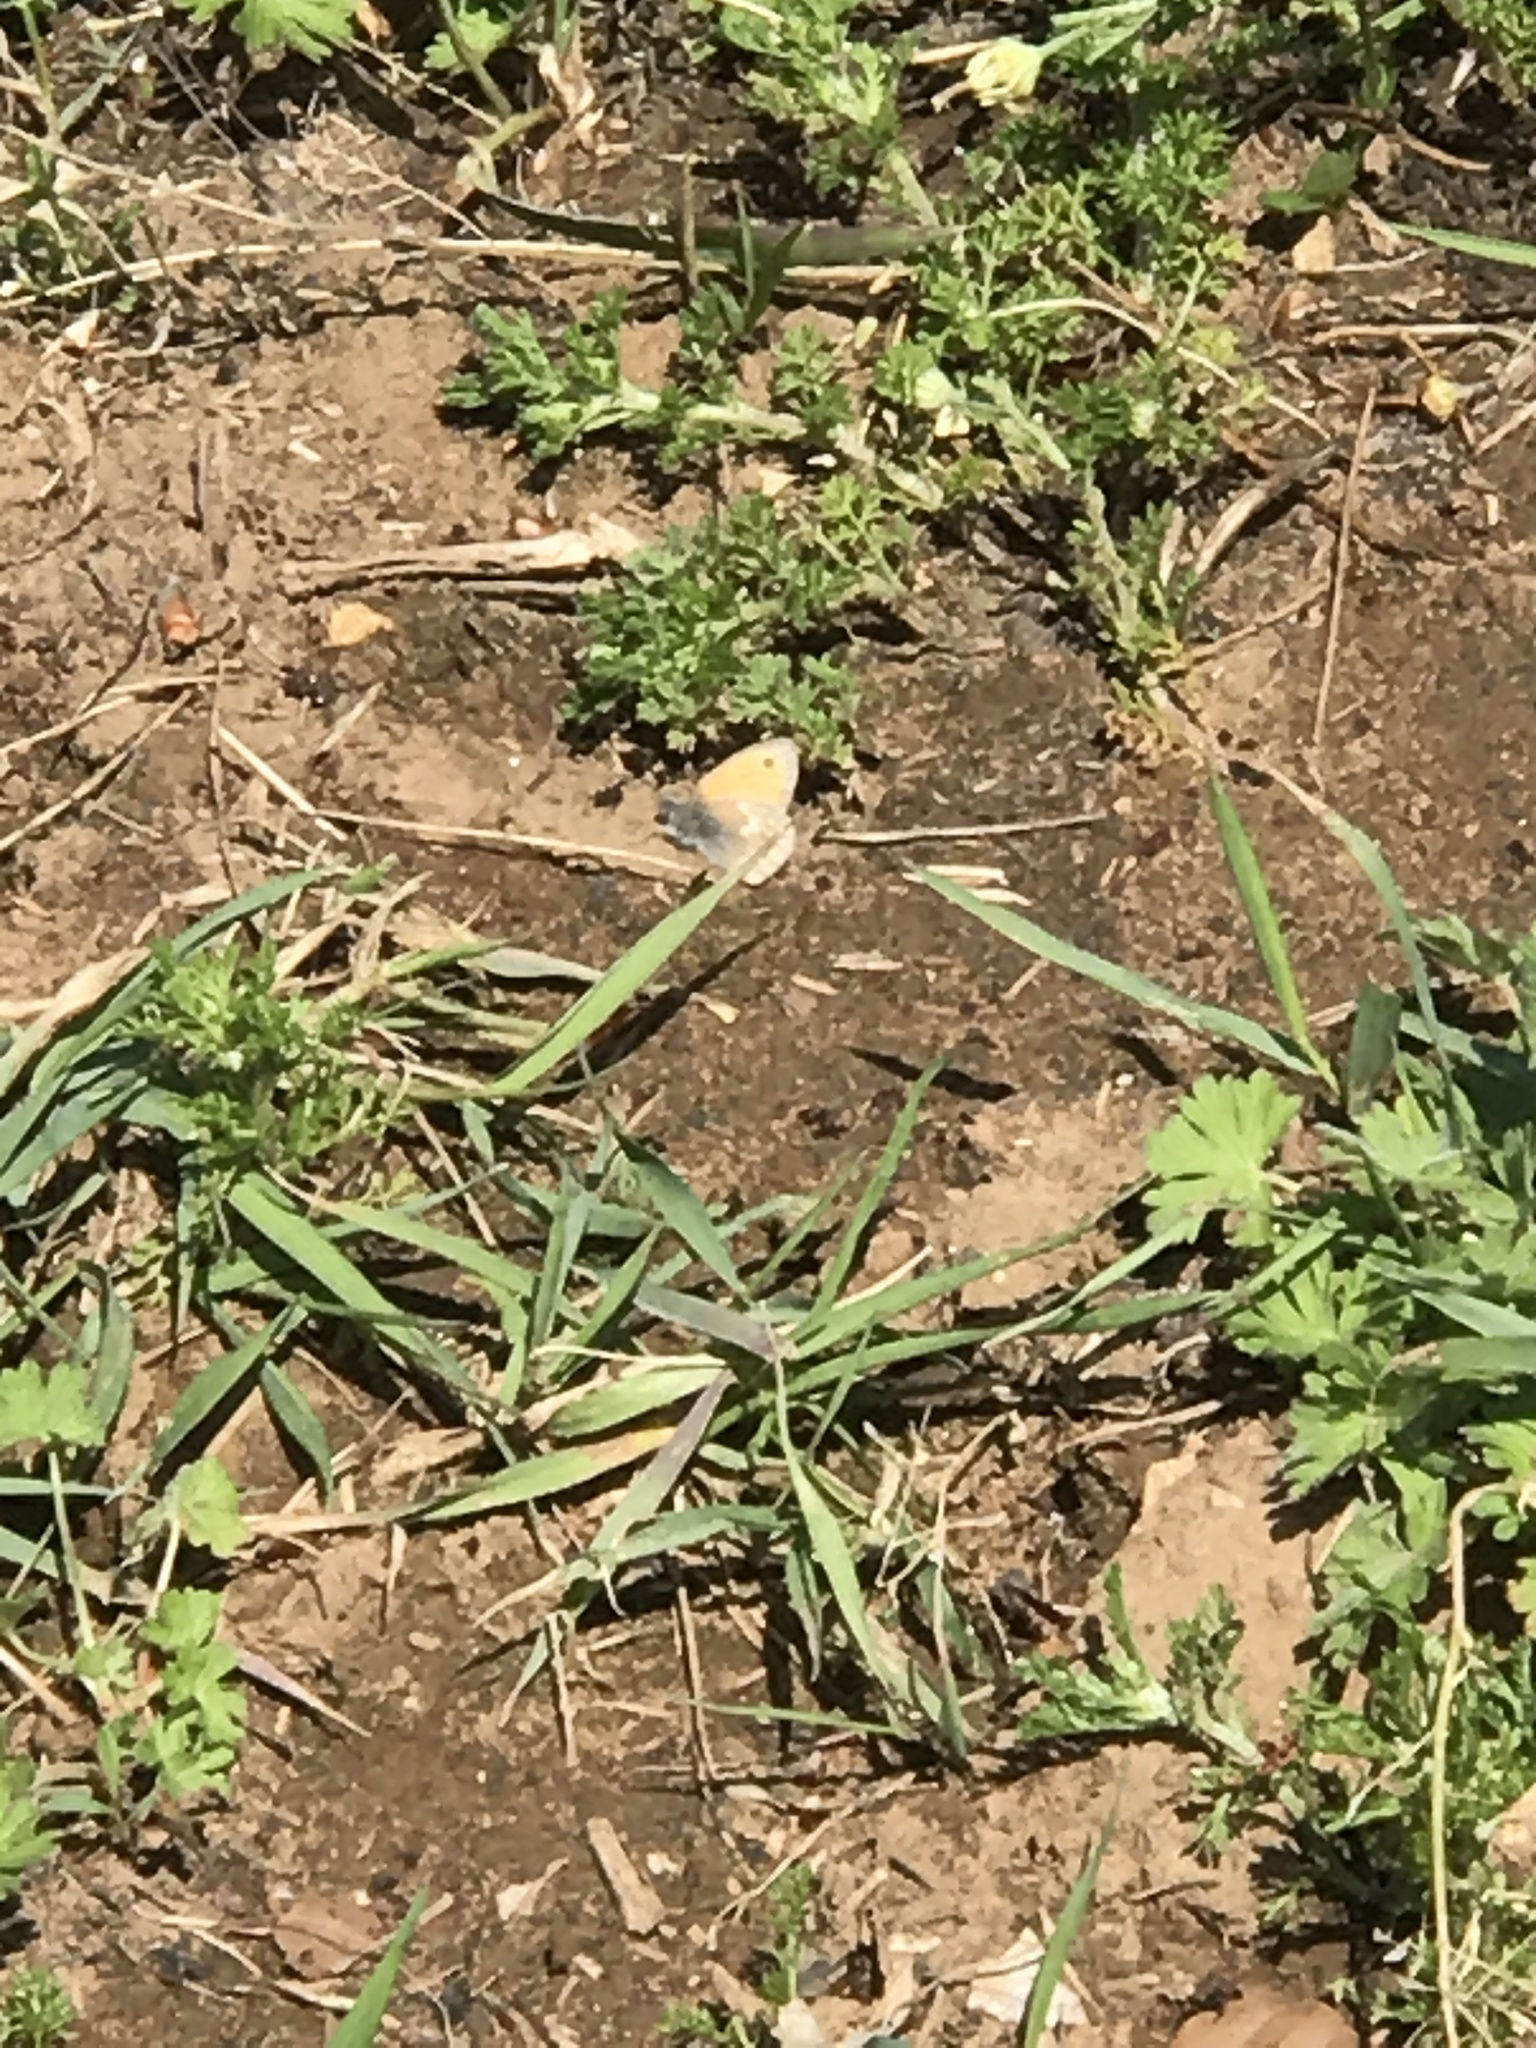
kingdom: Animalia
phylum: Arthropoda
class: Insecta
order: Lepidoptera
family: Nymphalidae
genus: Coenonympha
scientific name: Coenonympha pamphilus
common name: Small heath
